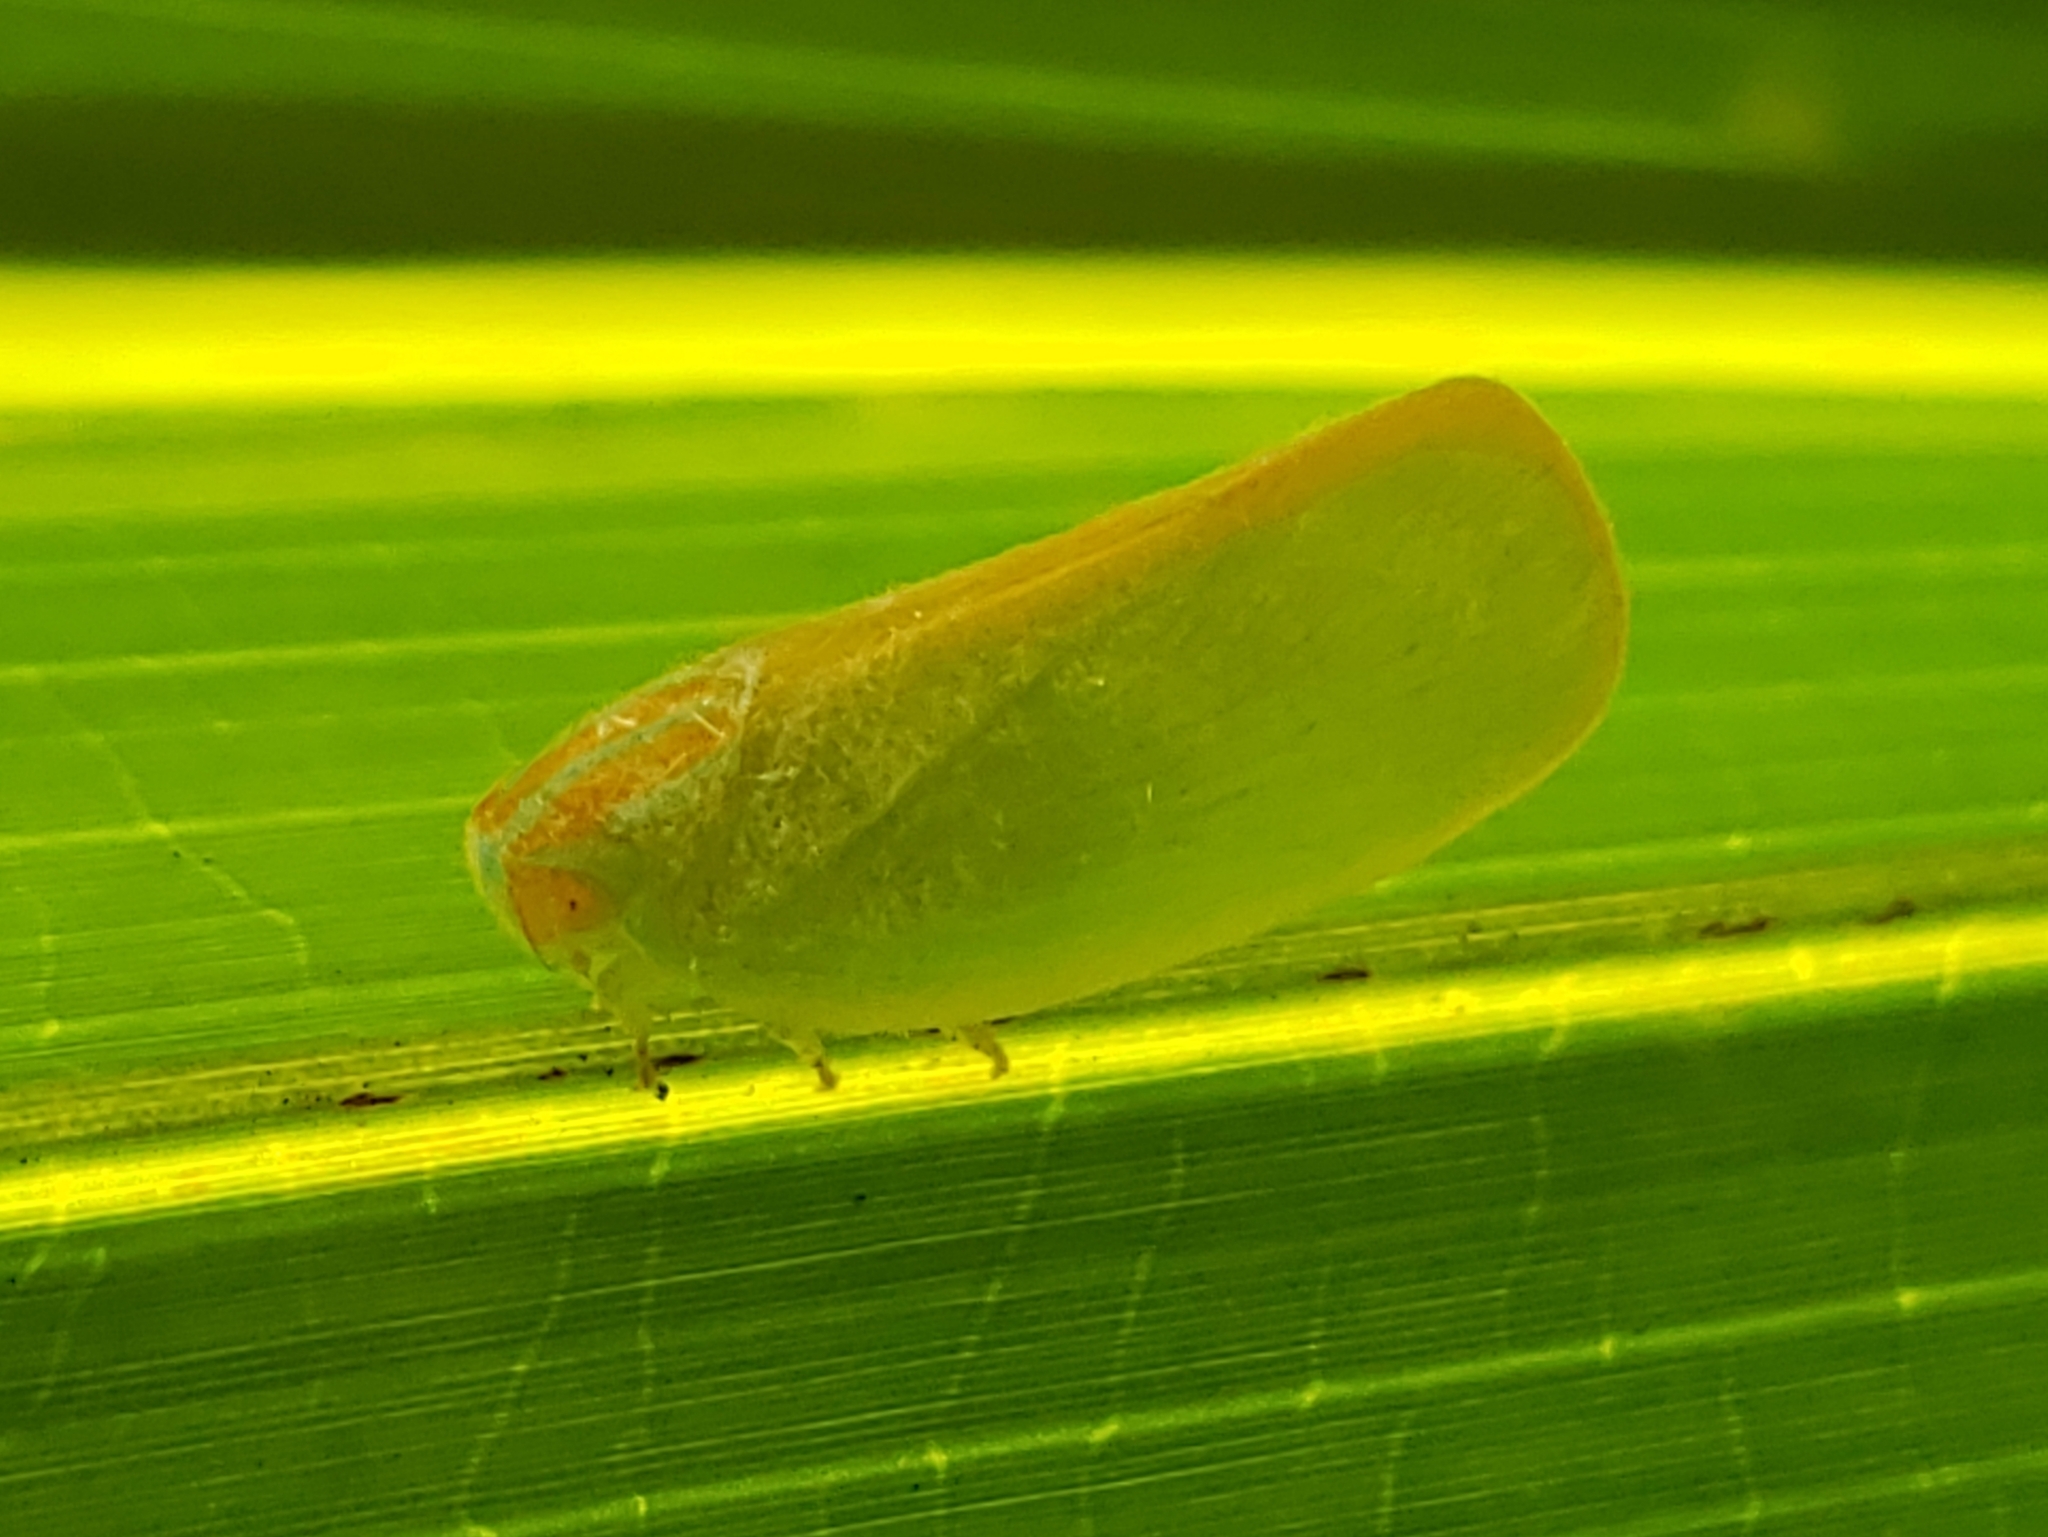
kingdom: Animalia
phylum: Arthropoda
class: Insecta
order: Hemiptera
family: Flatidae
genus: Ormenaria
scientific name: Ormenaria rufifascia
